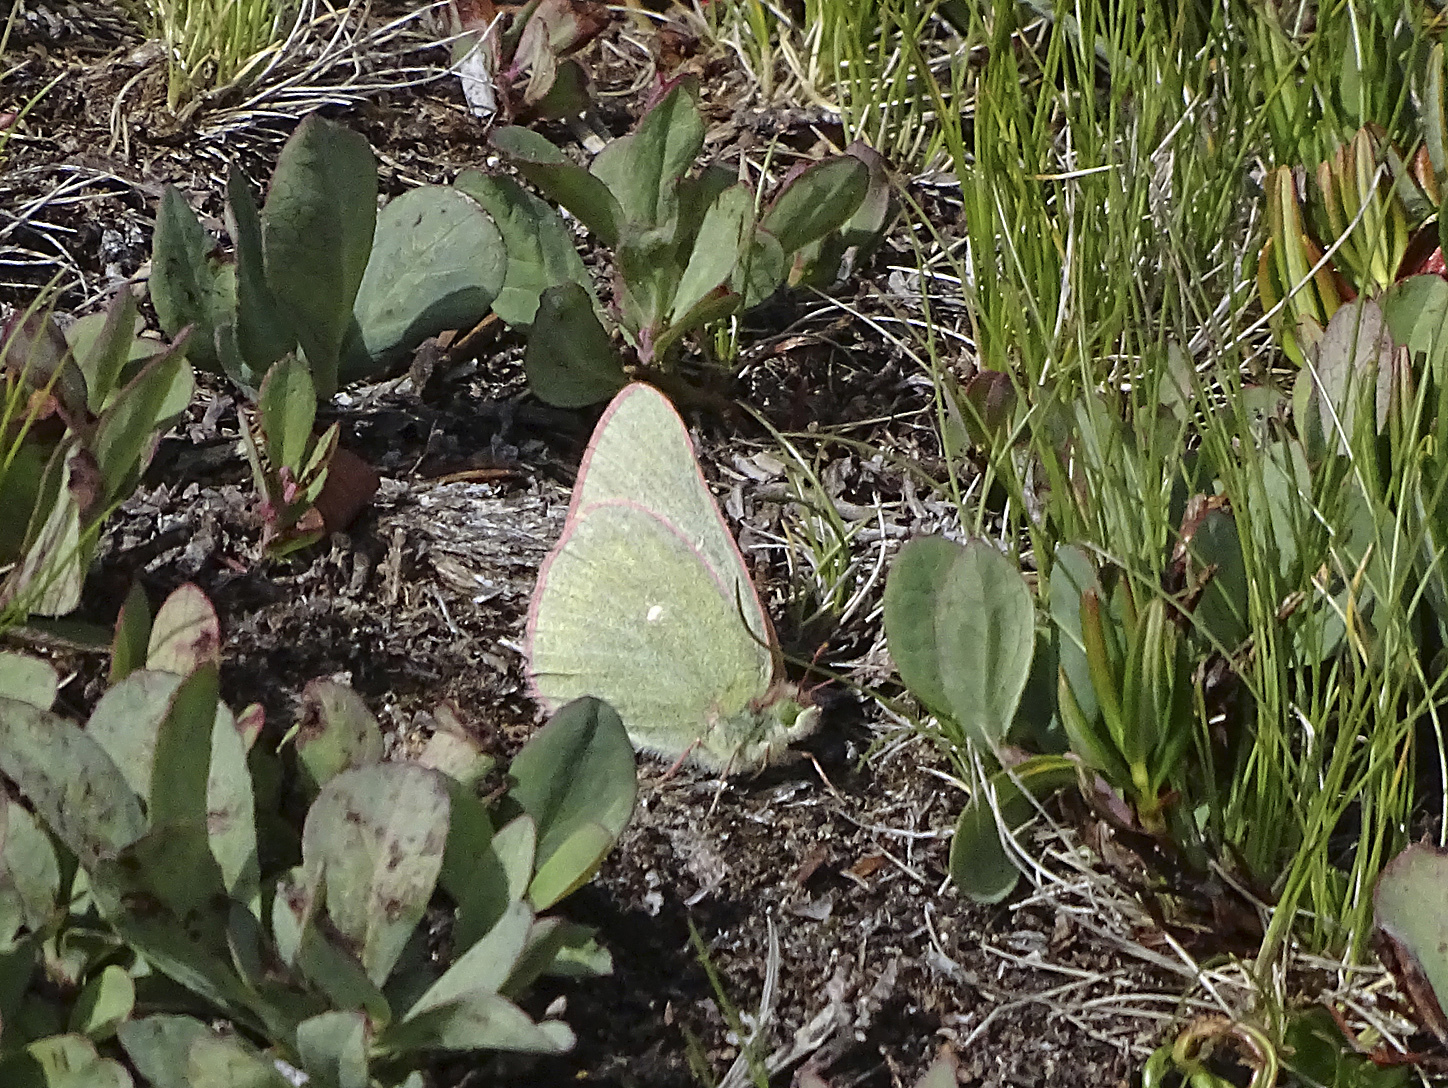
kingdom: Animalia
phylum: Arthropoda
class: Insecta
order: Lepidoptera
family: Pieridae
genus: Colias
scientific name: Colias behrii
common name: Behr's sulphur
